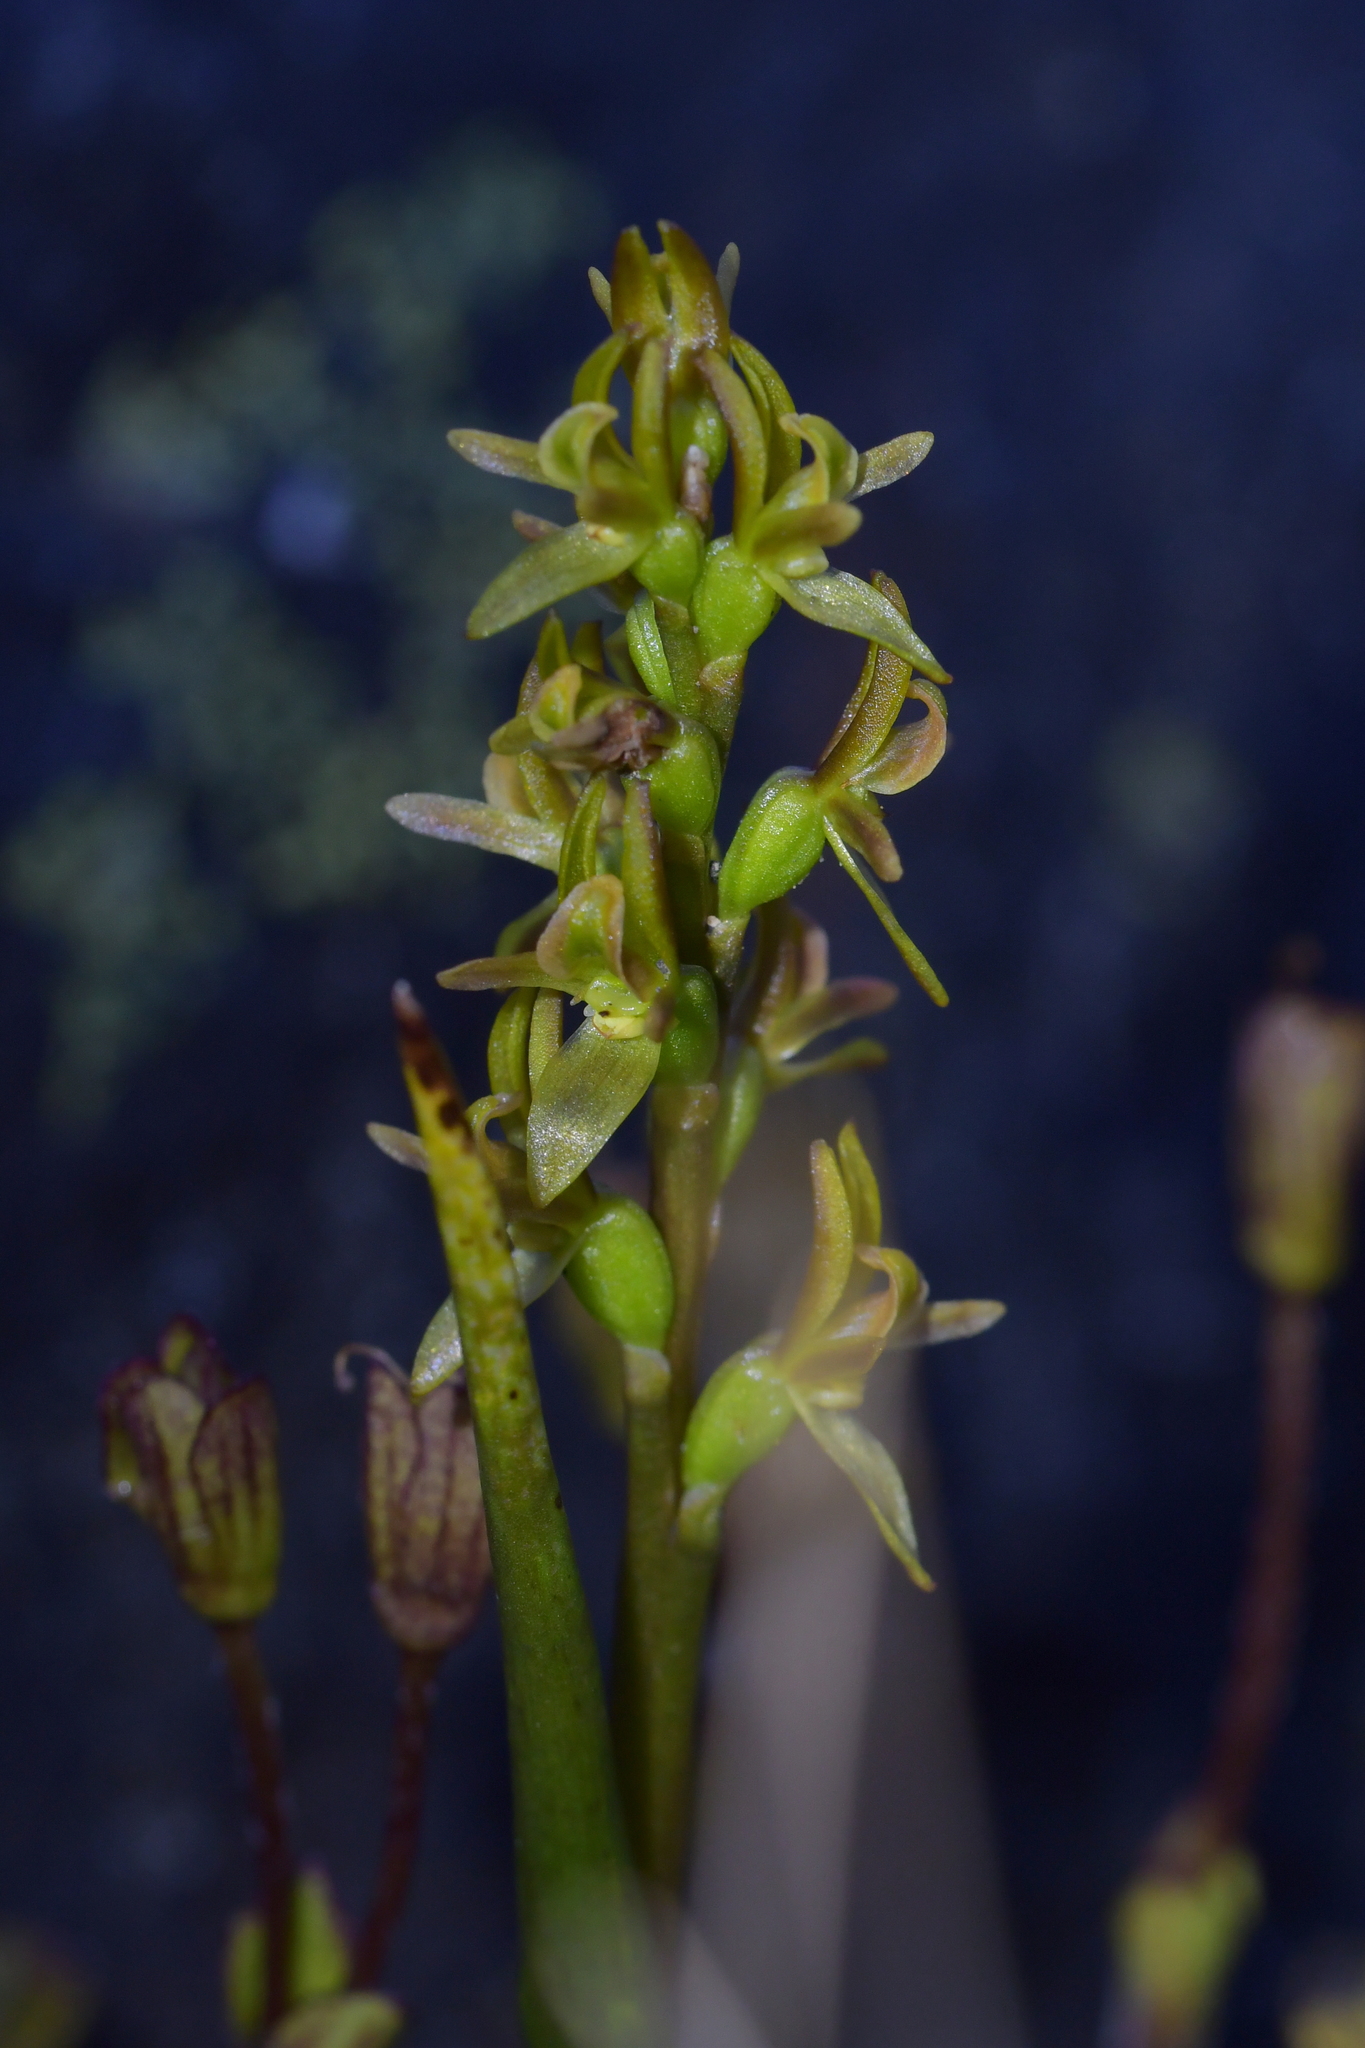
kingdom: Plantae
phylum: Tracheophyta
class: Liliopsida
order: Asparagales
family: Orchidaceae
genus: Prasophyllum
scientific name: Prasophyllum colensoi
